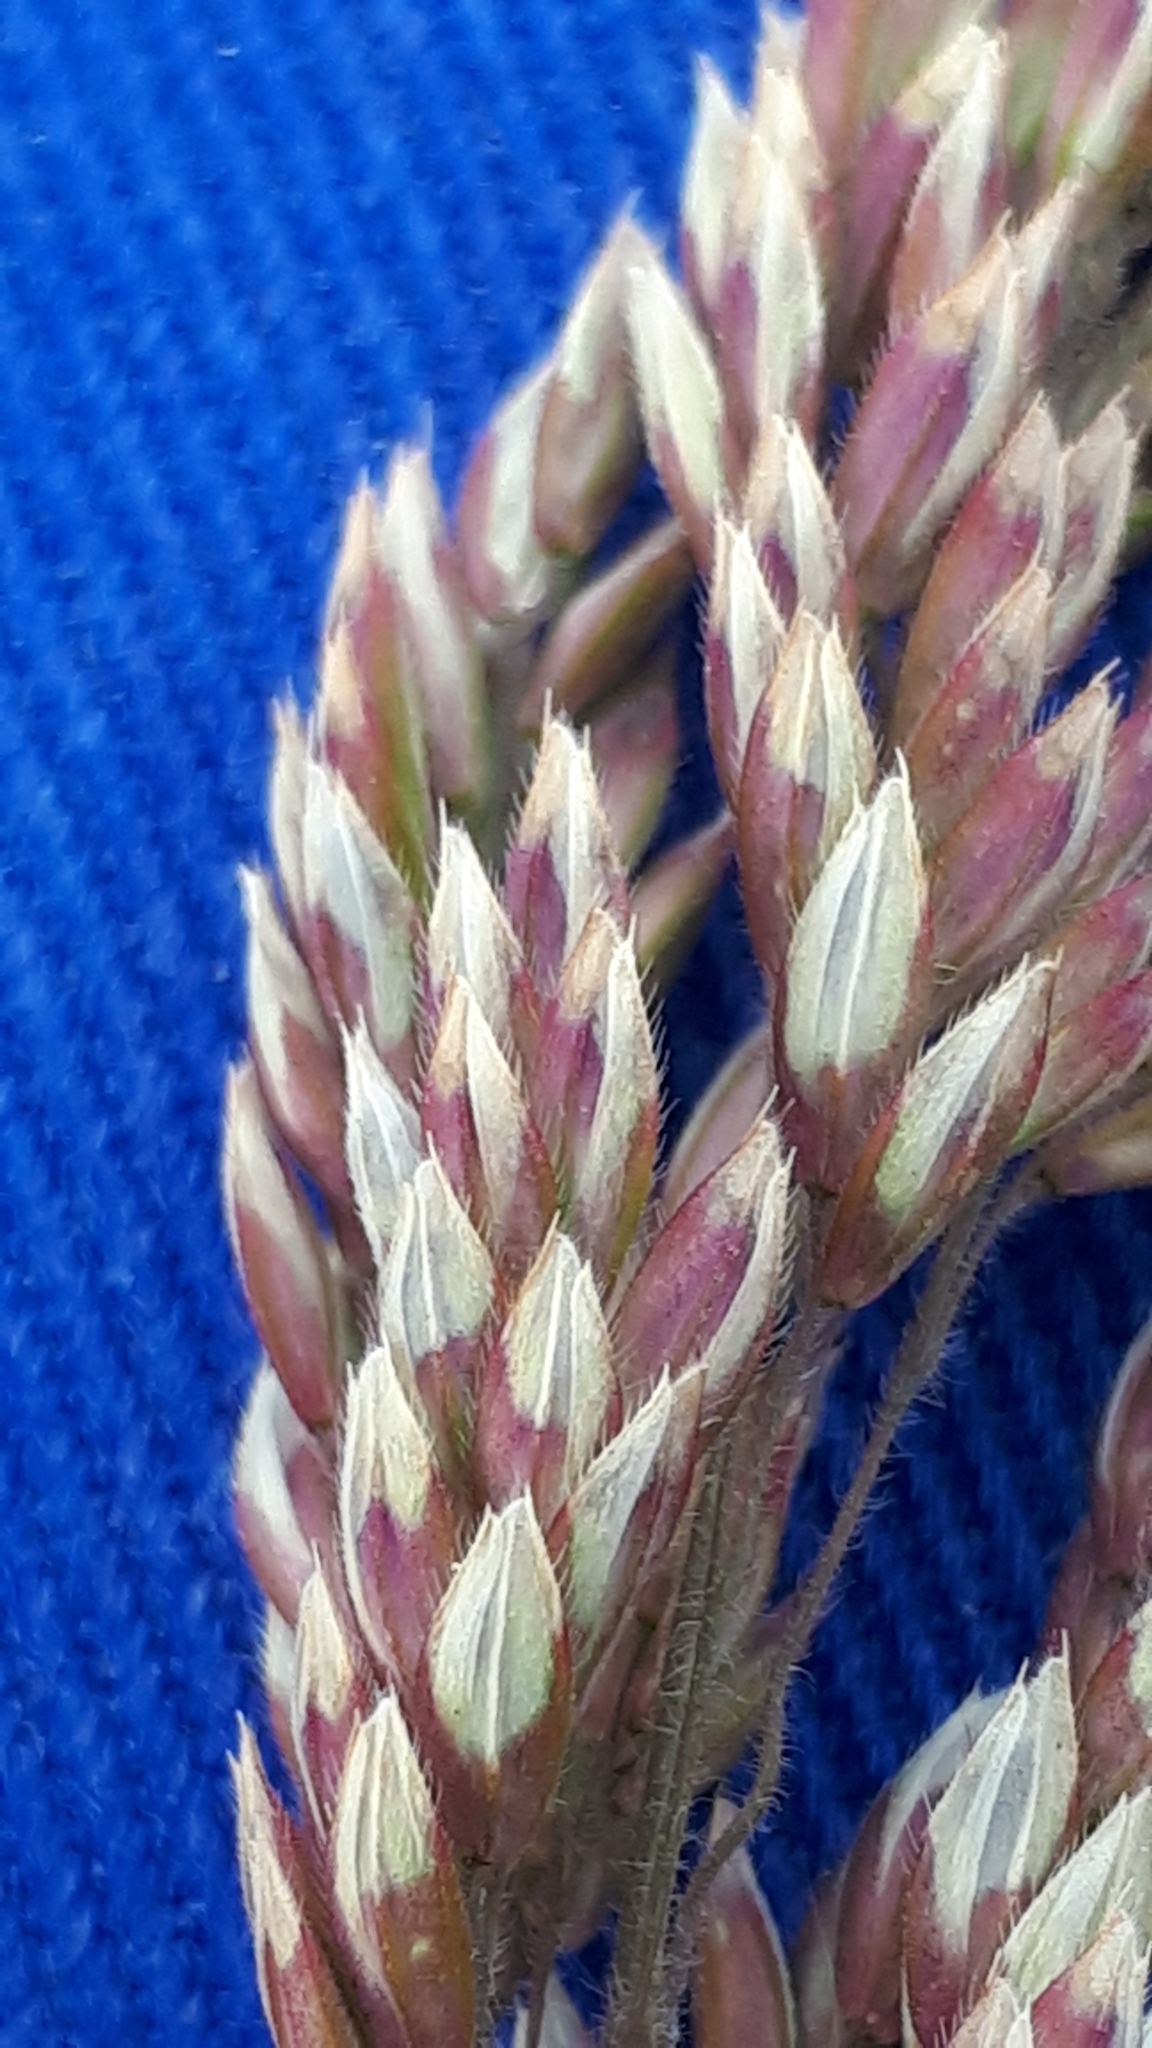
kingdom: Plantae
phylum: Tracheophyta
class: Liliopsida
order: Poales
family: Poaceae
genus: Holcus
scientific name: Holcus lanatus
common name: Yorkshire-fog
